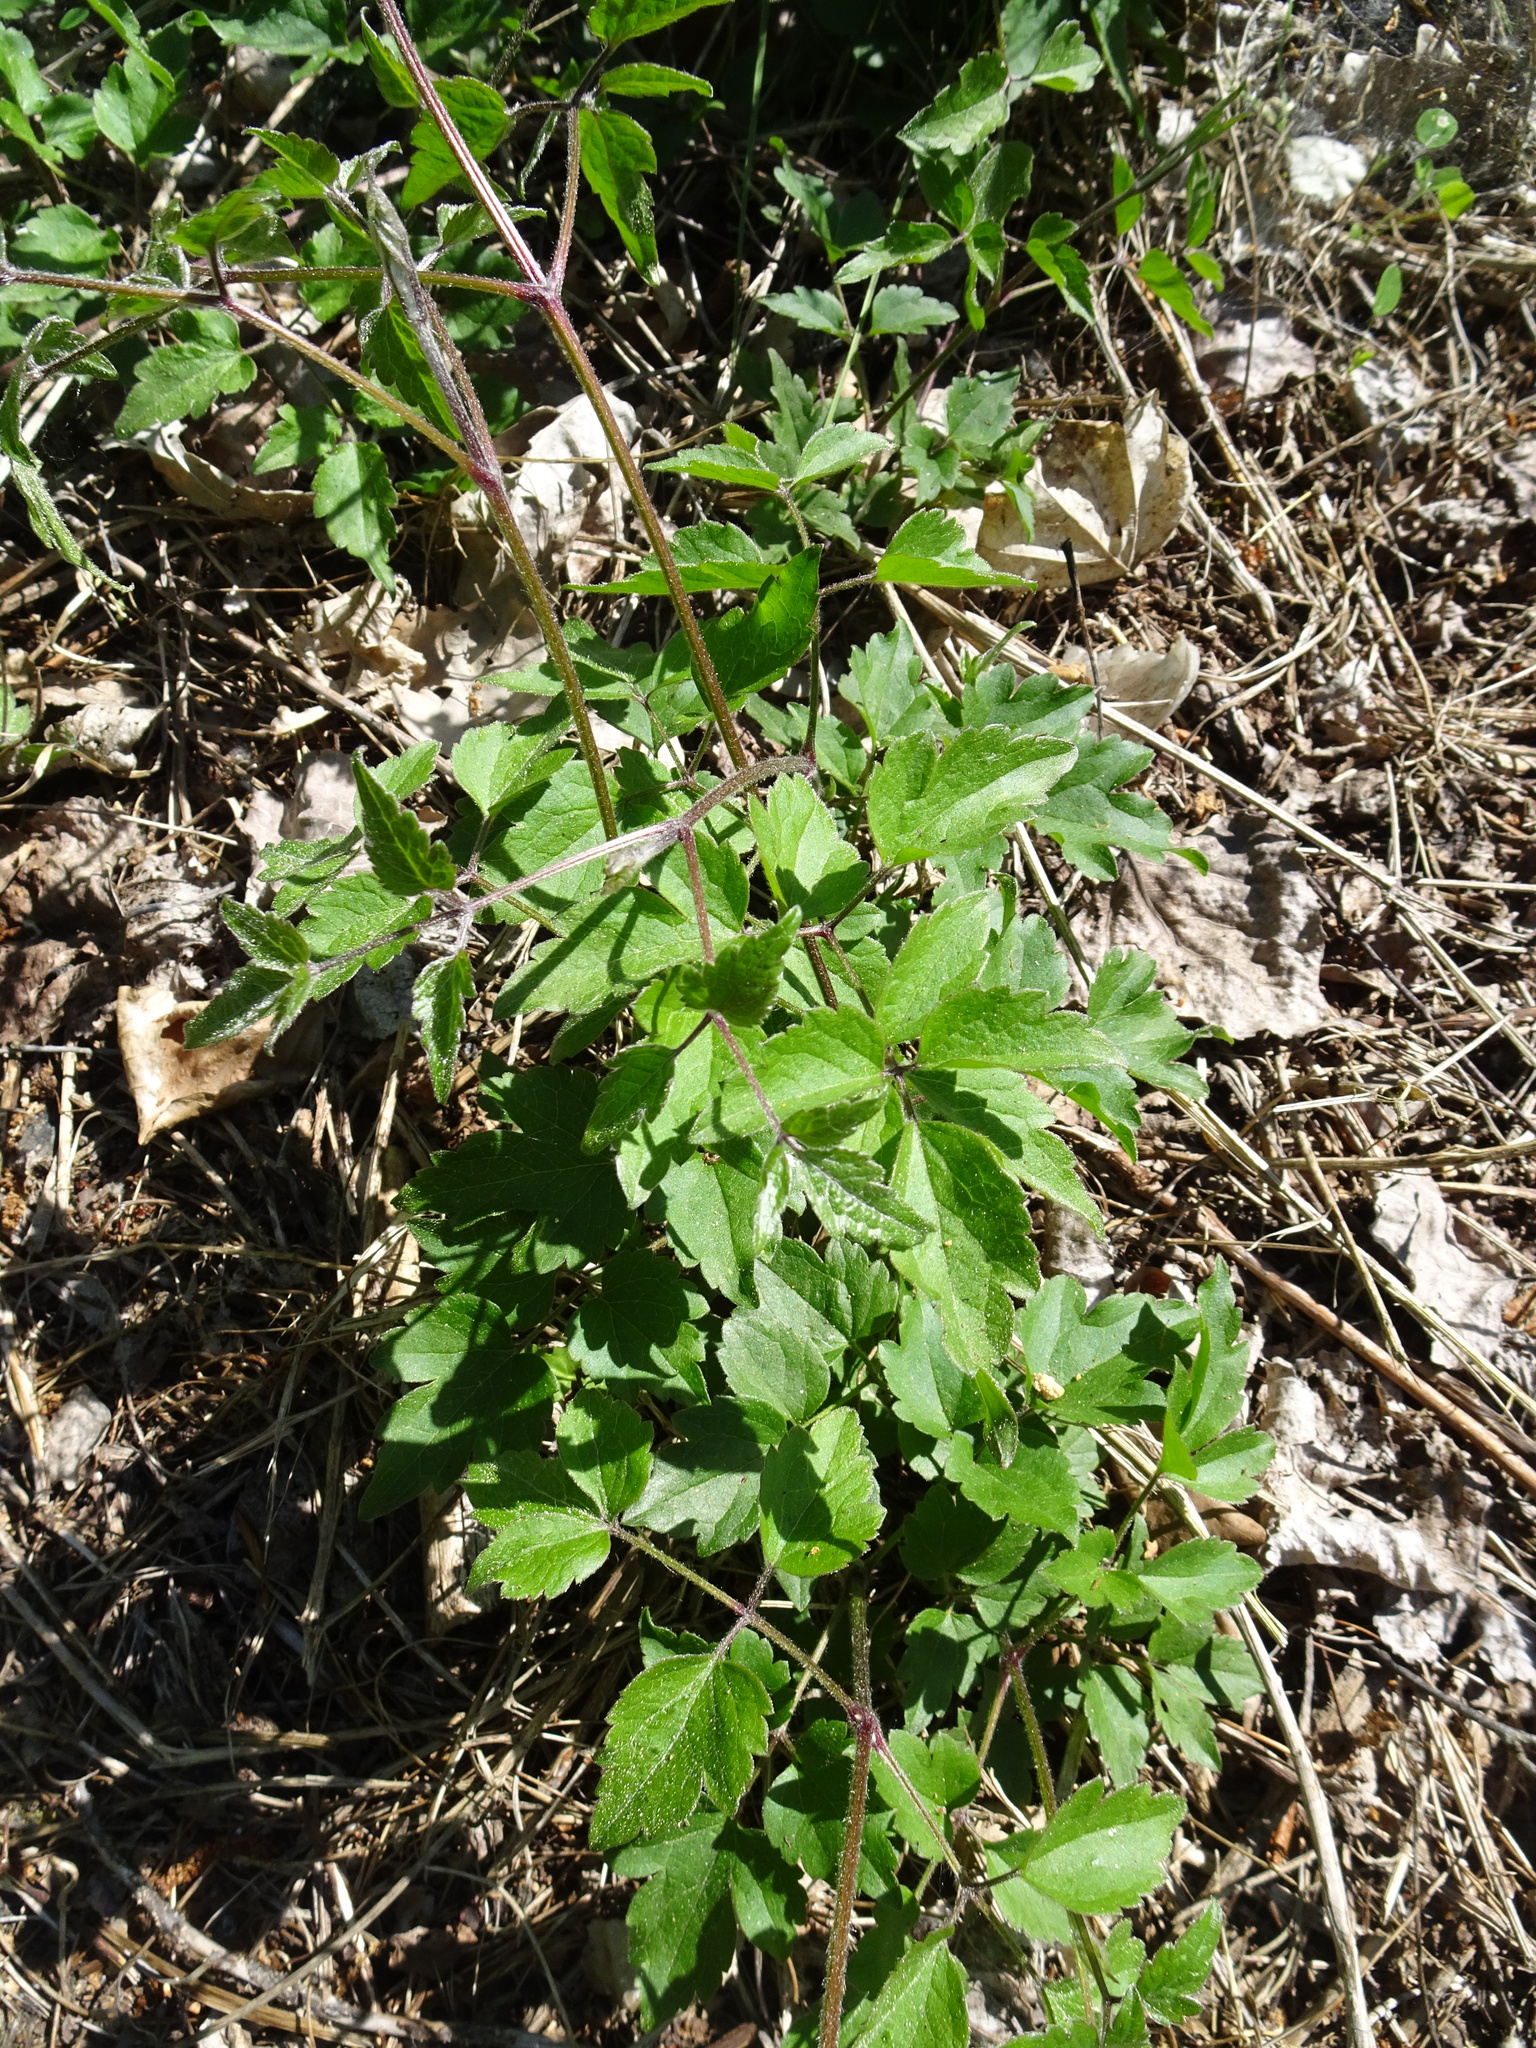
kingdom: Plantae
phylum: Tracheophyta
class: Magnoliopsida
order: Ranunculales
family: Ranunculaceae
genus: Clematis
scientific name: Clematis vitalba
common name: Evergreen clematis
